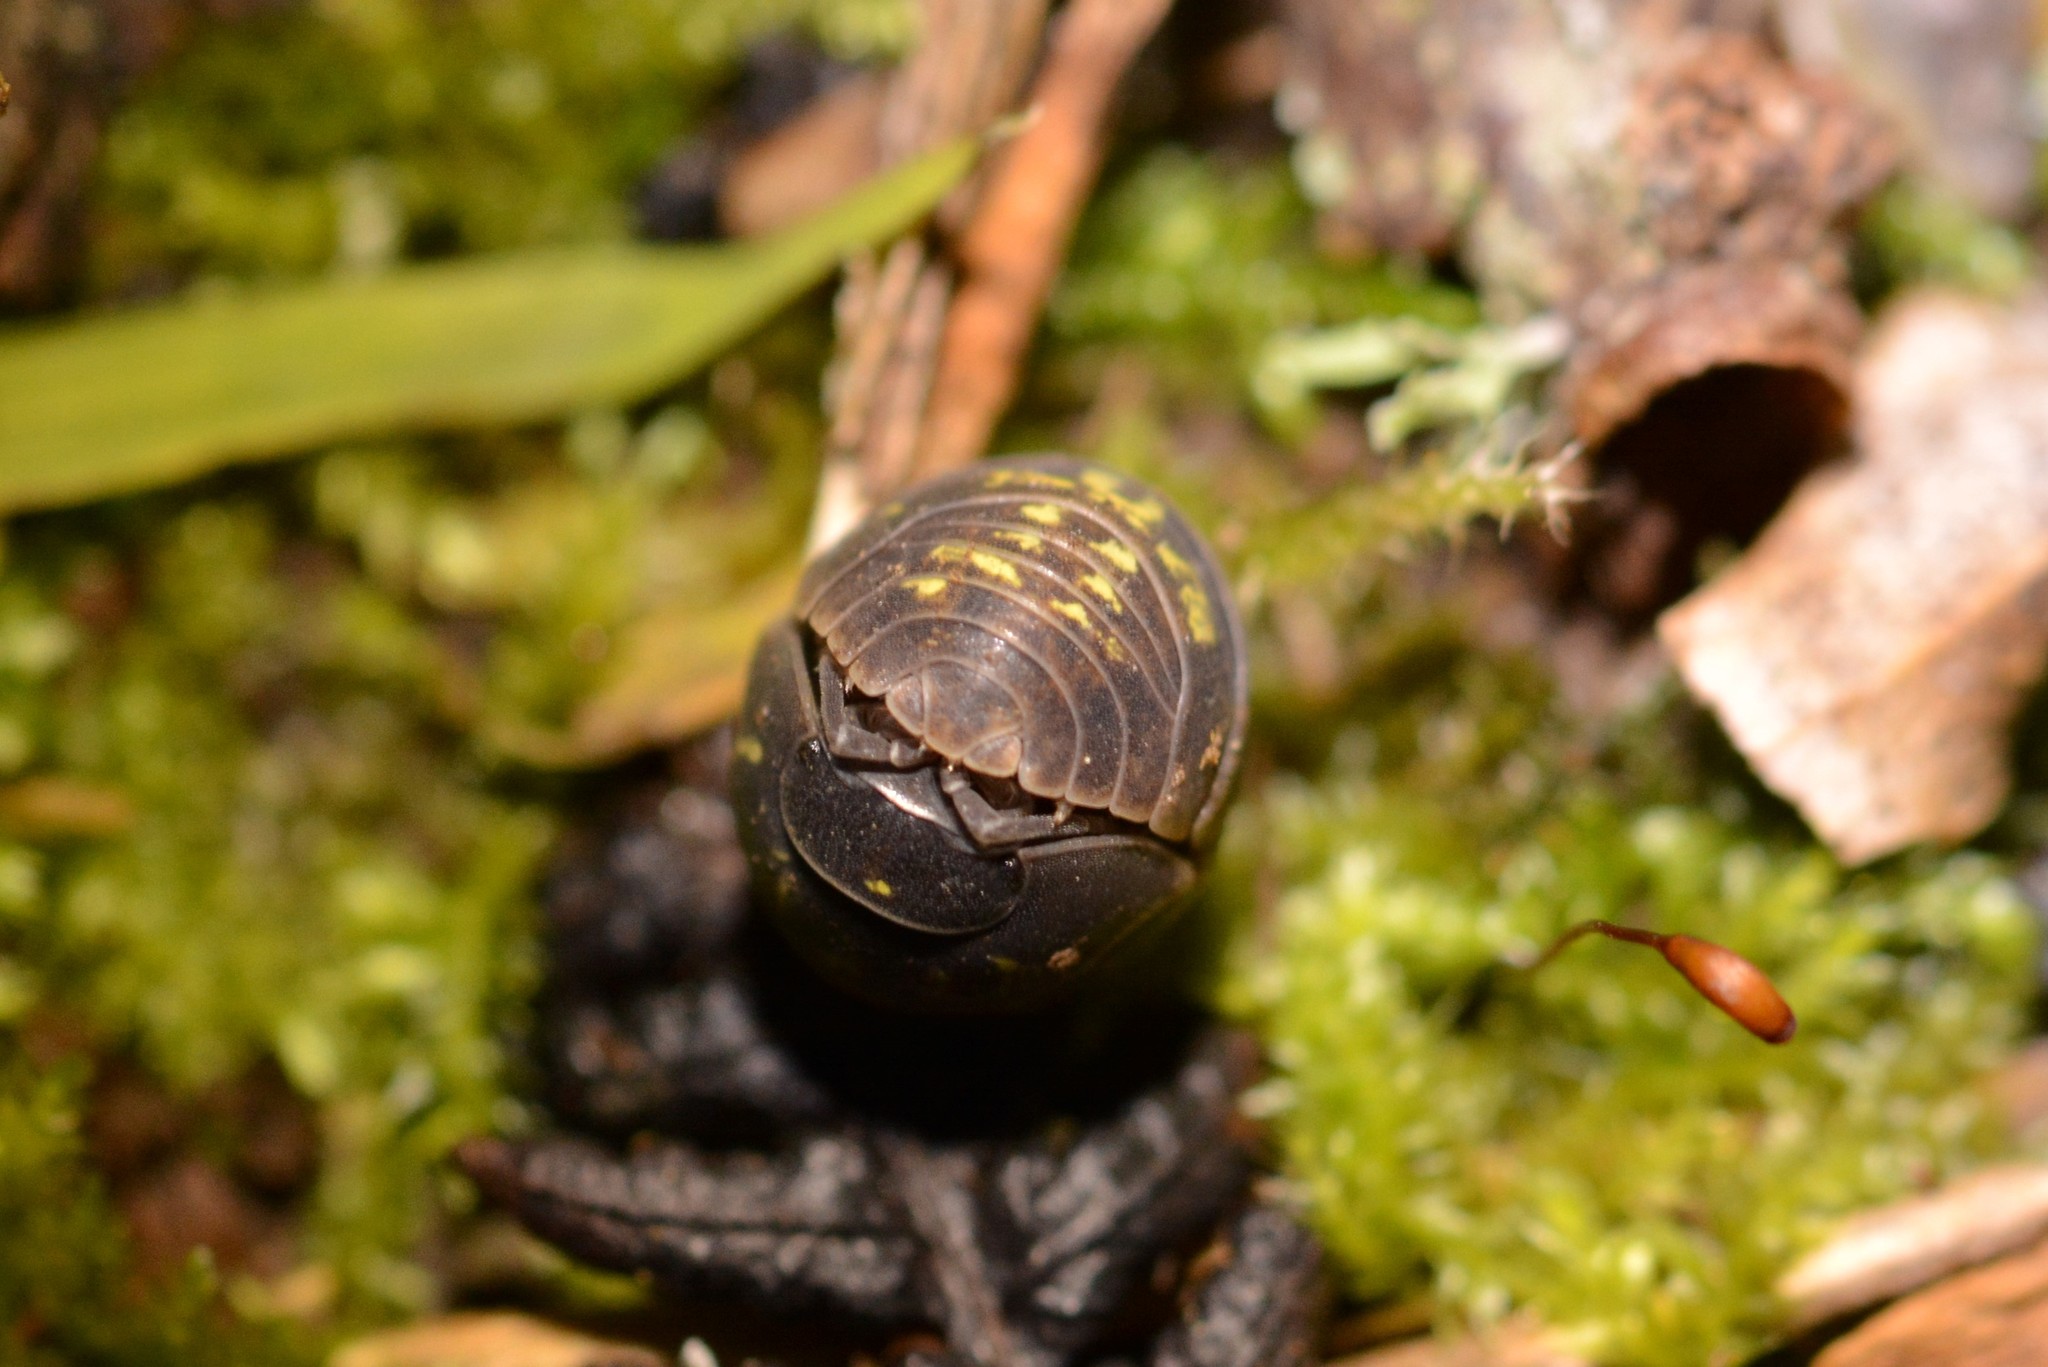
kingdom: Animalia
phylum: Arthropoda
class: Malacostraca
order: Isopoda
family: Armadillidiidae
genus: Armadillidium
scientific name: Armadillidium vulgare
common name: Common pill woodlouse
